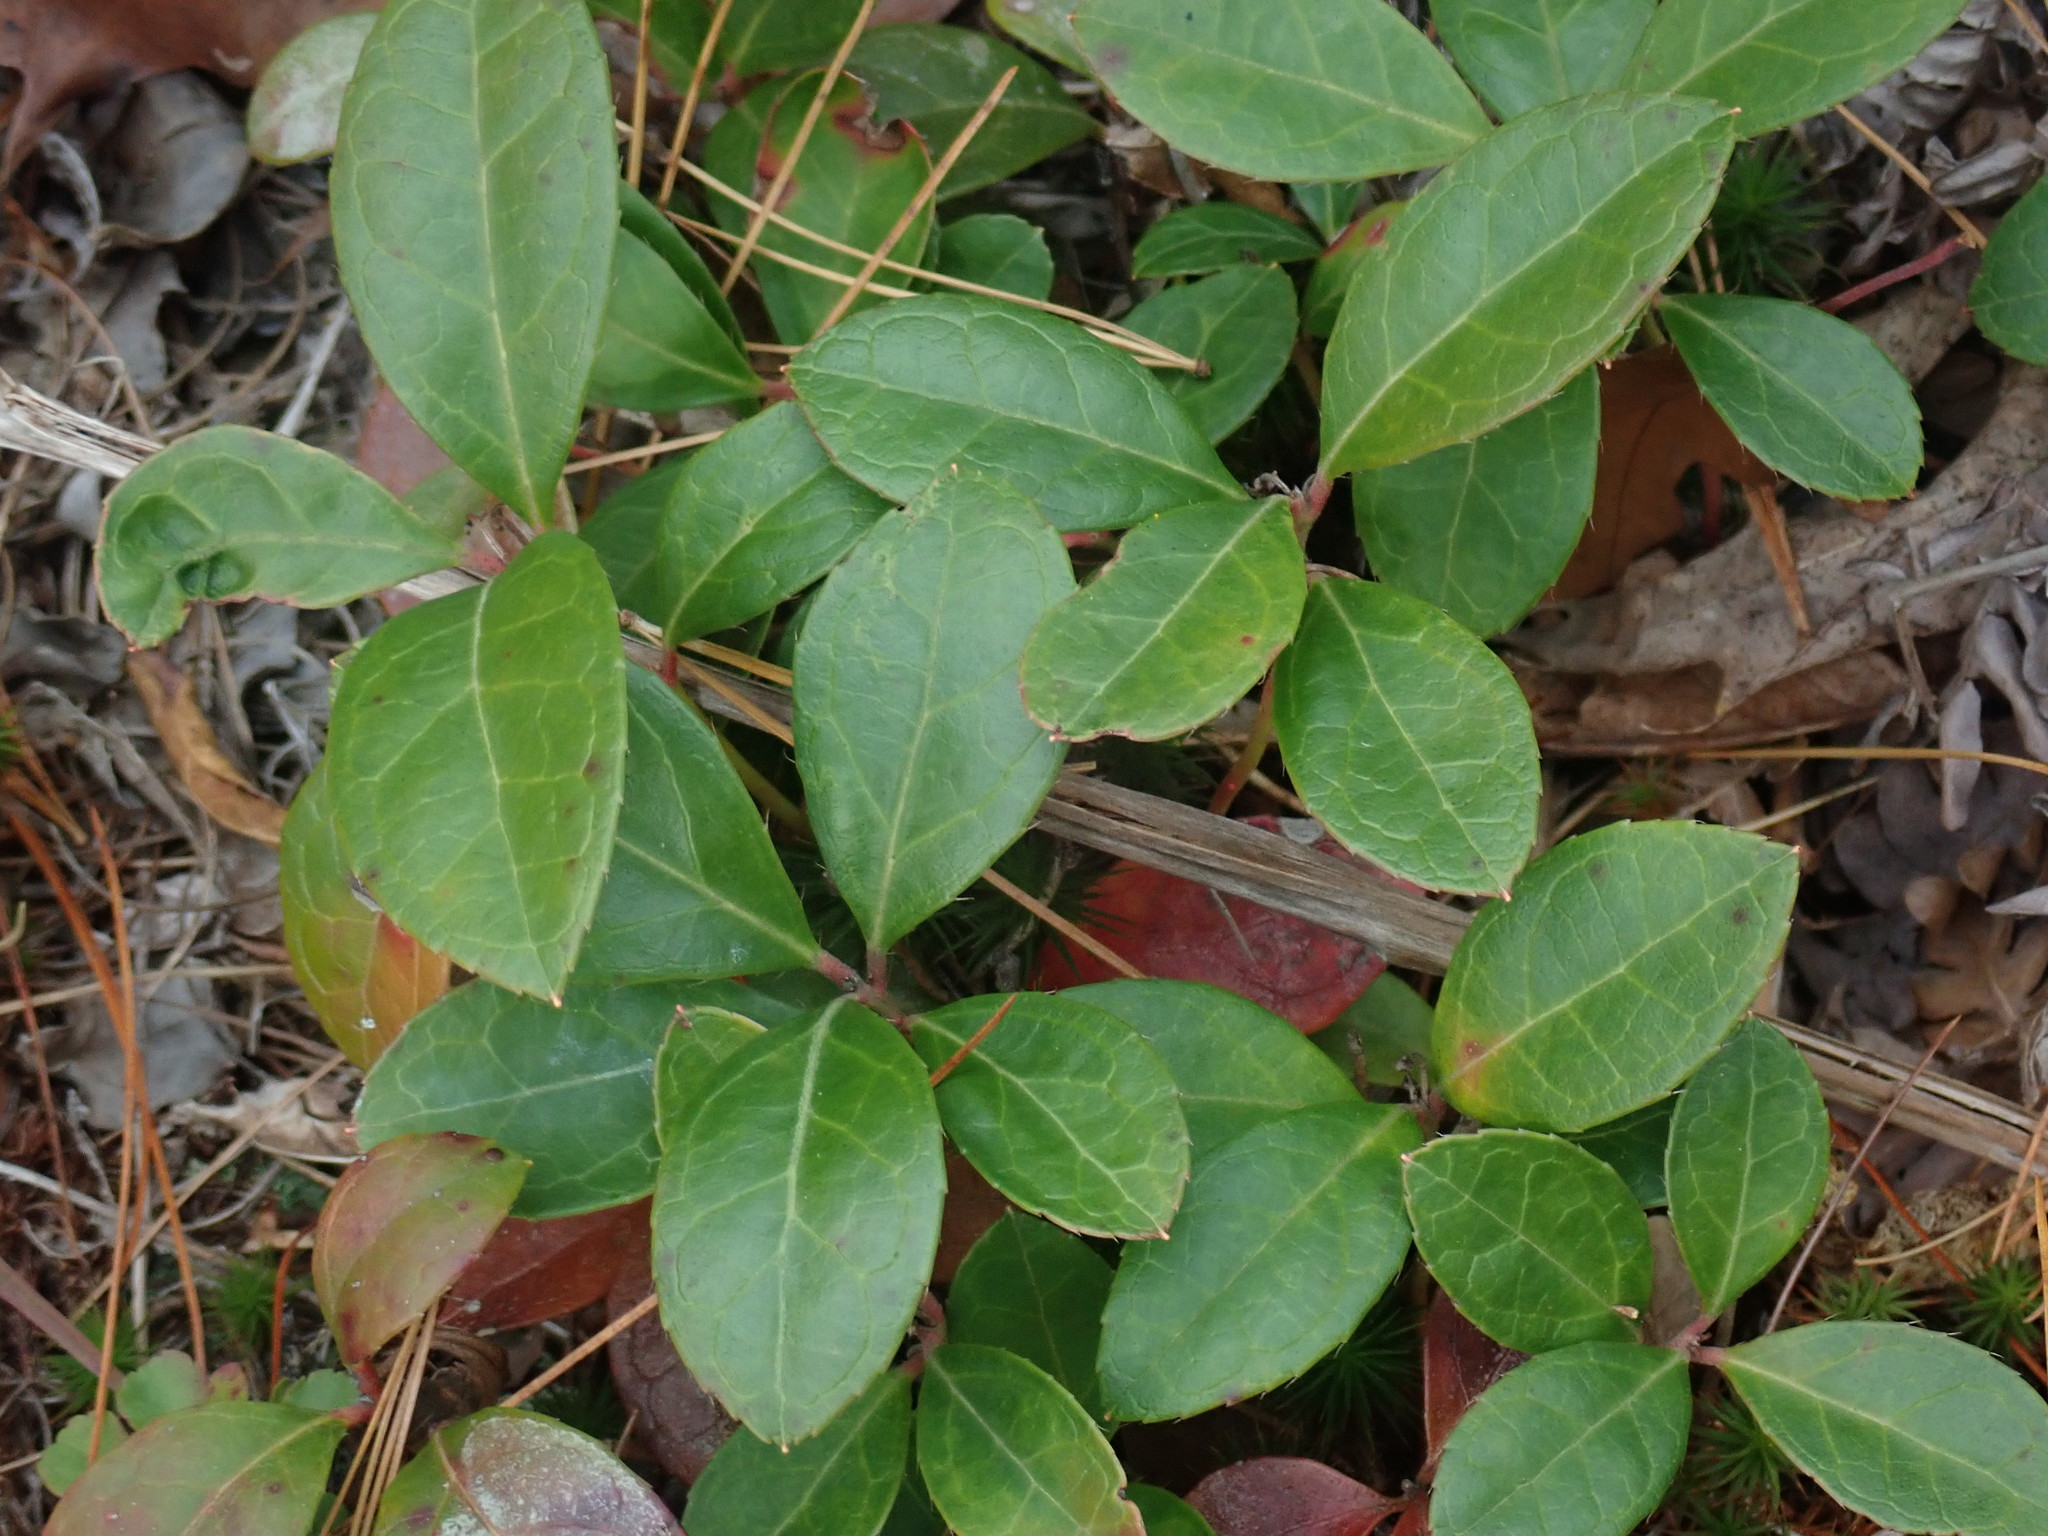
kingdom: Plantae
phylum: Tracheophyta
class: Magnoliopsida
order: Ericales
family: Ericaceae
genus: Gaultheria
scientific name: Gaultheria procumbens
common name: Checkerberry
